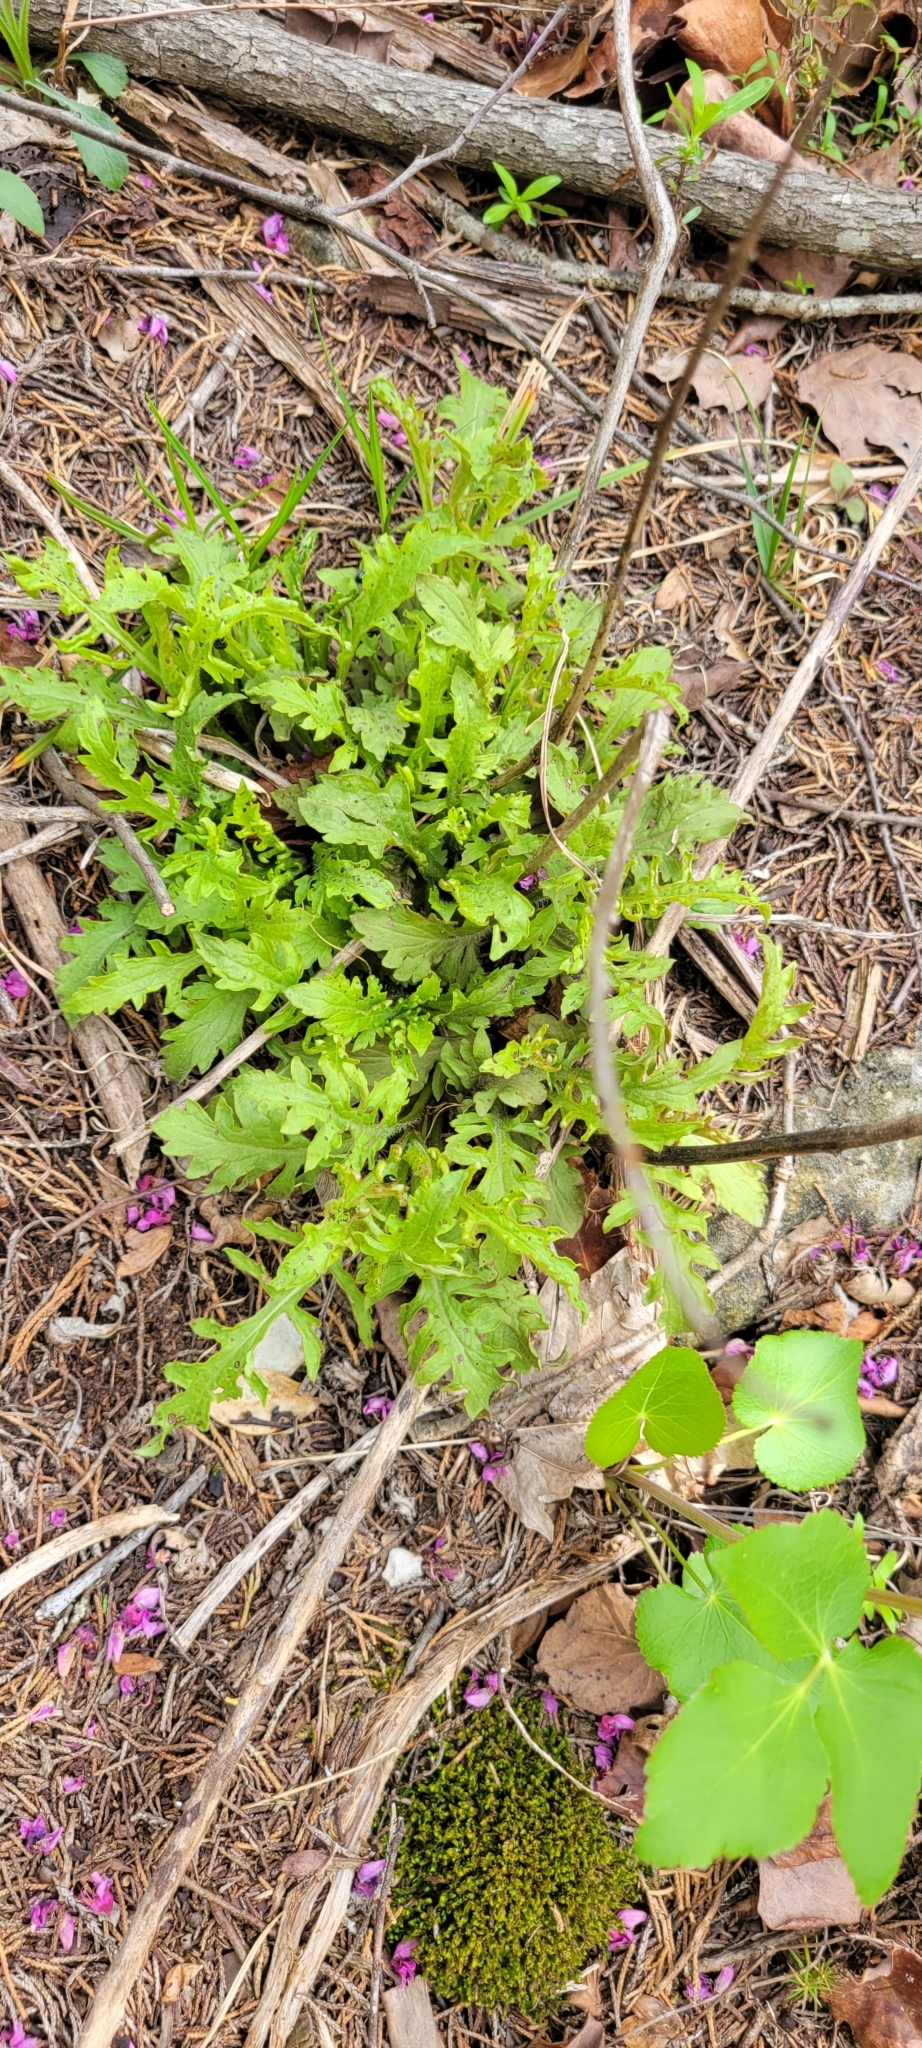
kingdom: Plantae
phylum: Tracheophyta
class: Magnoliopsida
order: Lamiales
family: Orobanchaceae
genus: Dasistoma
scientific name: Dasistoma macrophyllum
